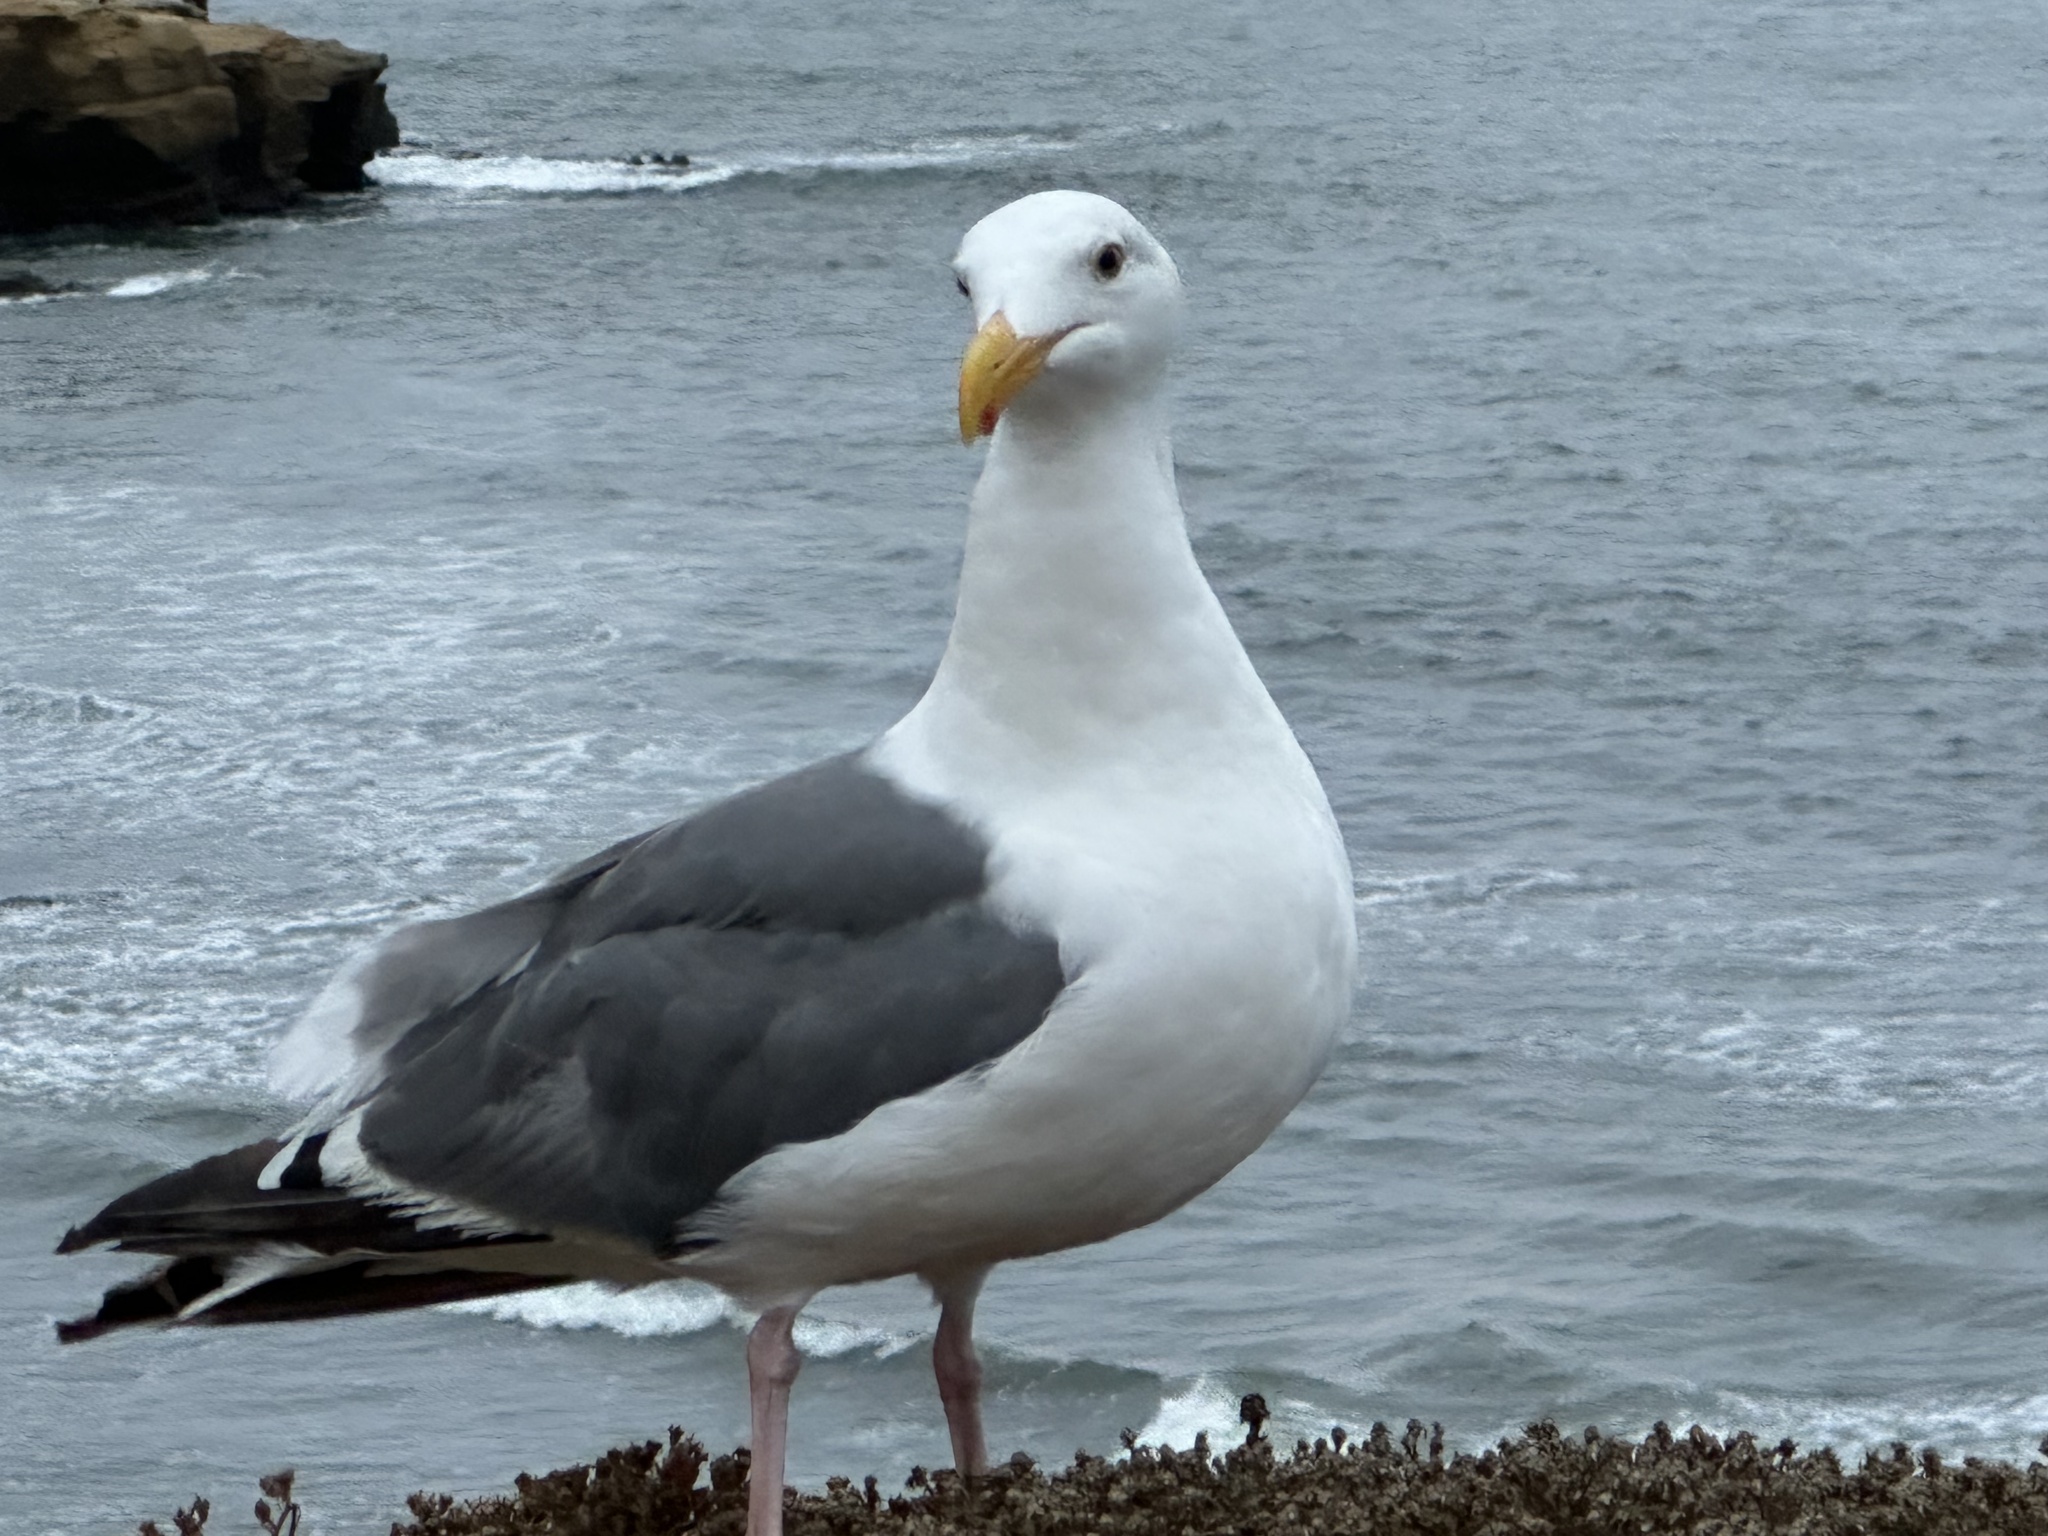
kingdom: Animalia
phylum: Chordata
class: Aves
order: Charadriiformes
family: Laridae
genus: Larus
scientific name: Larus occidentalis
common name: Western gull
